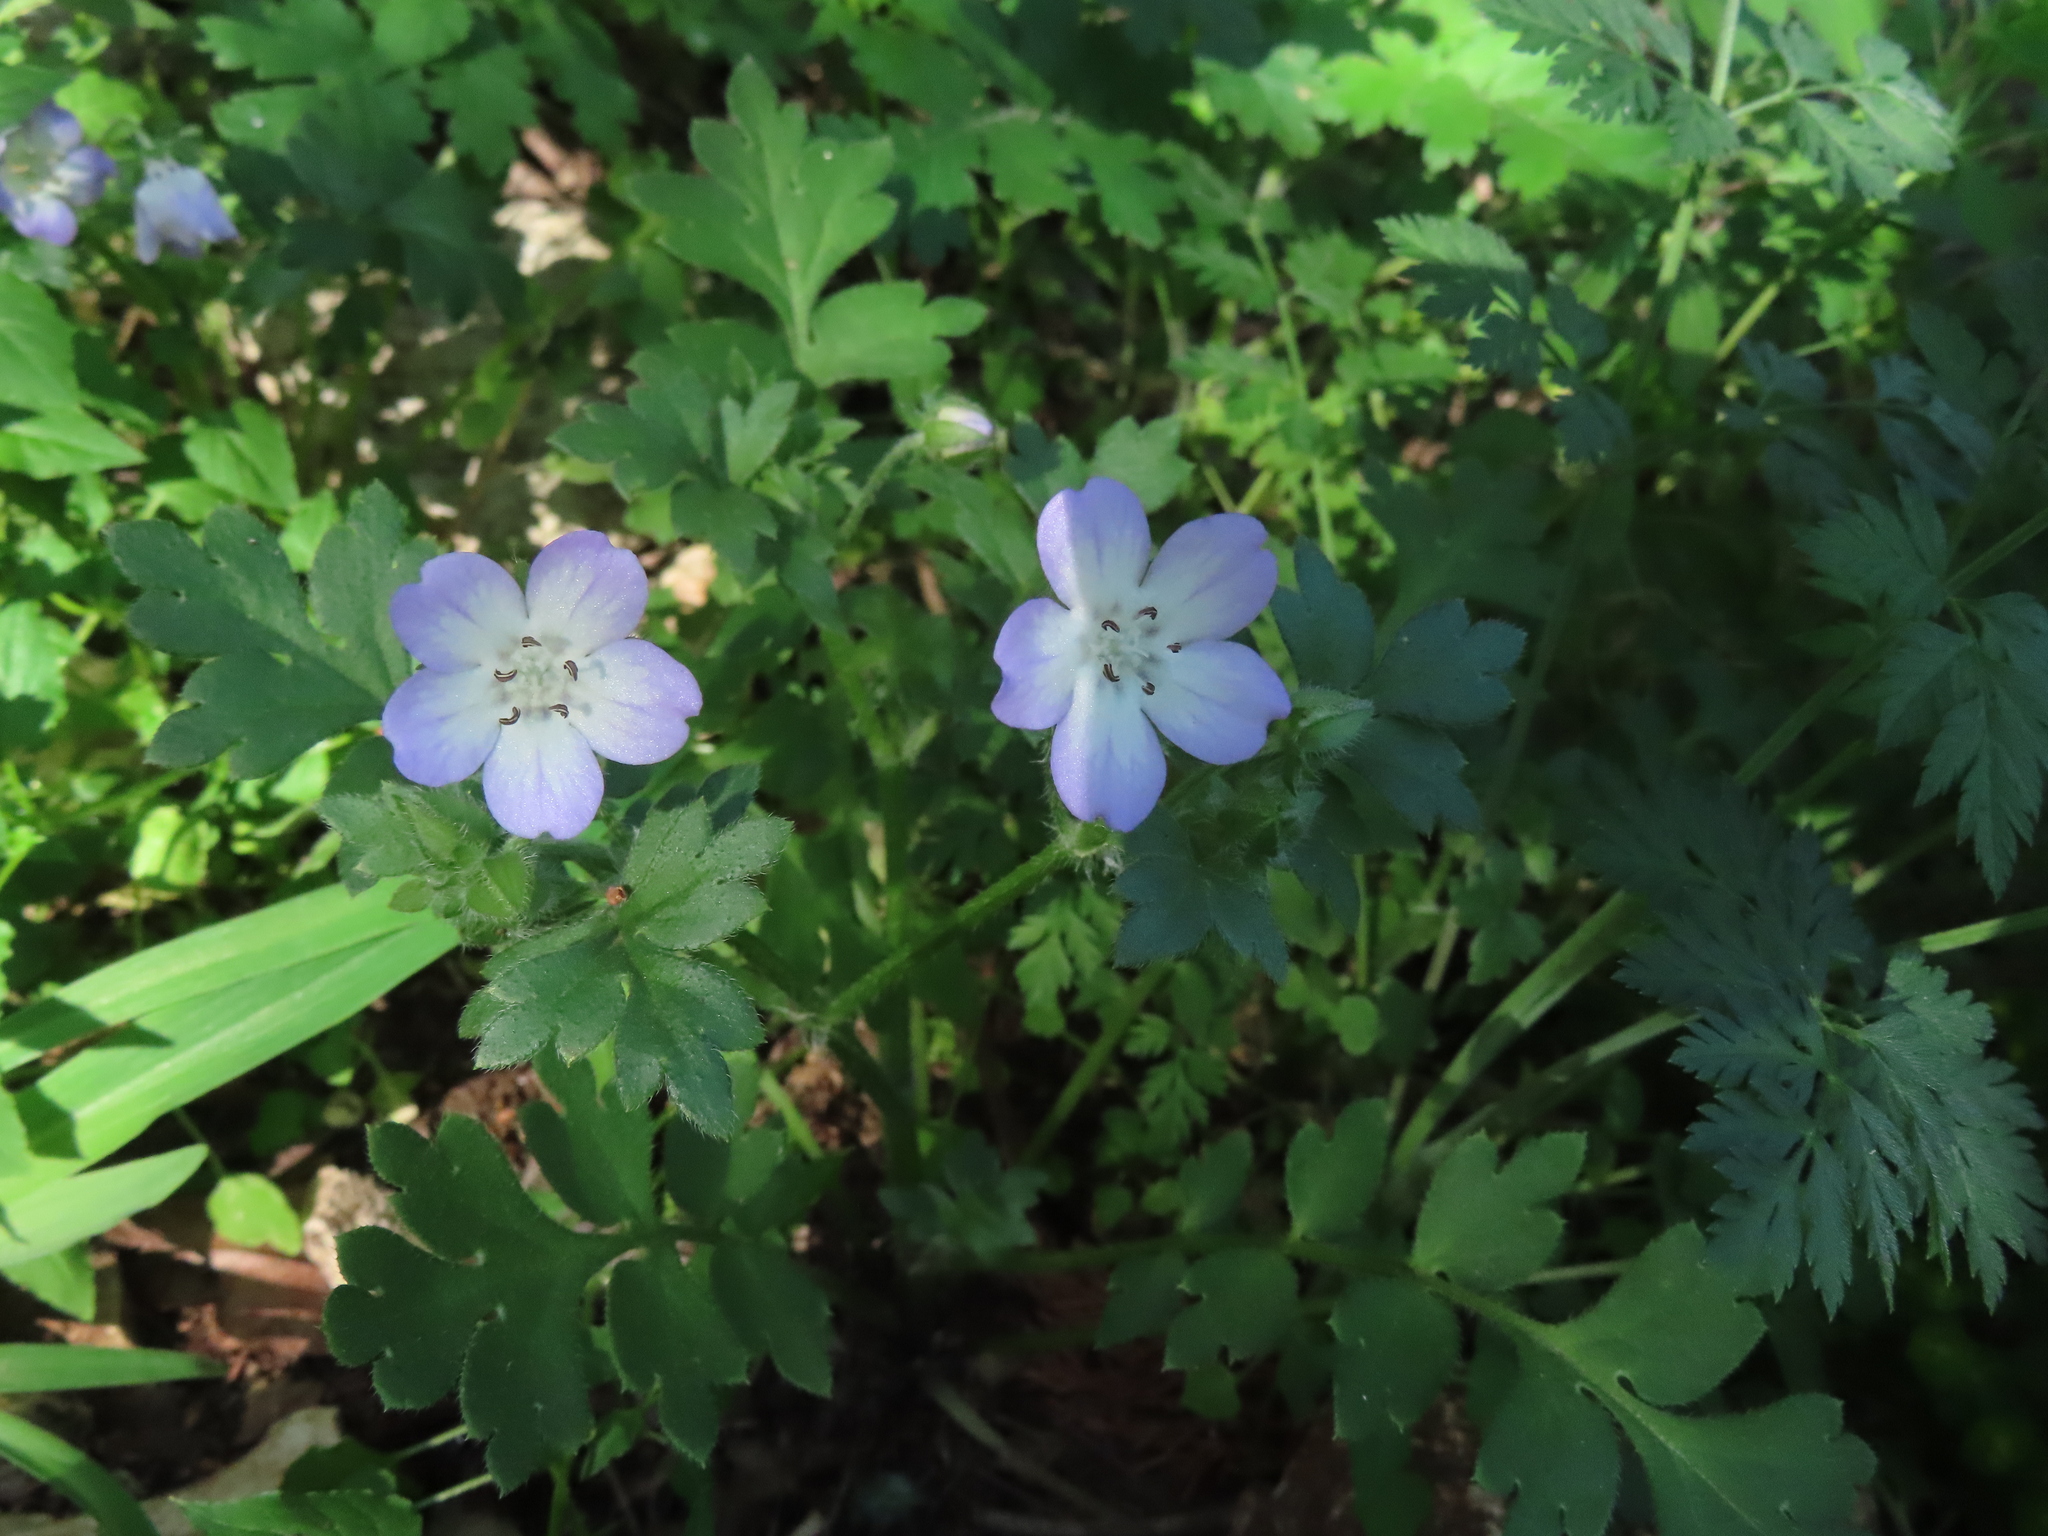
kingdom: Plantae
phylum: Tracheophyta
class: Magnoliopsida
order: Boraginales
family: Hydrophyllaceae
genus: Nemophila
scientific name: Nemophila phacelioides
